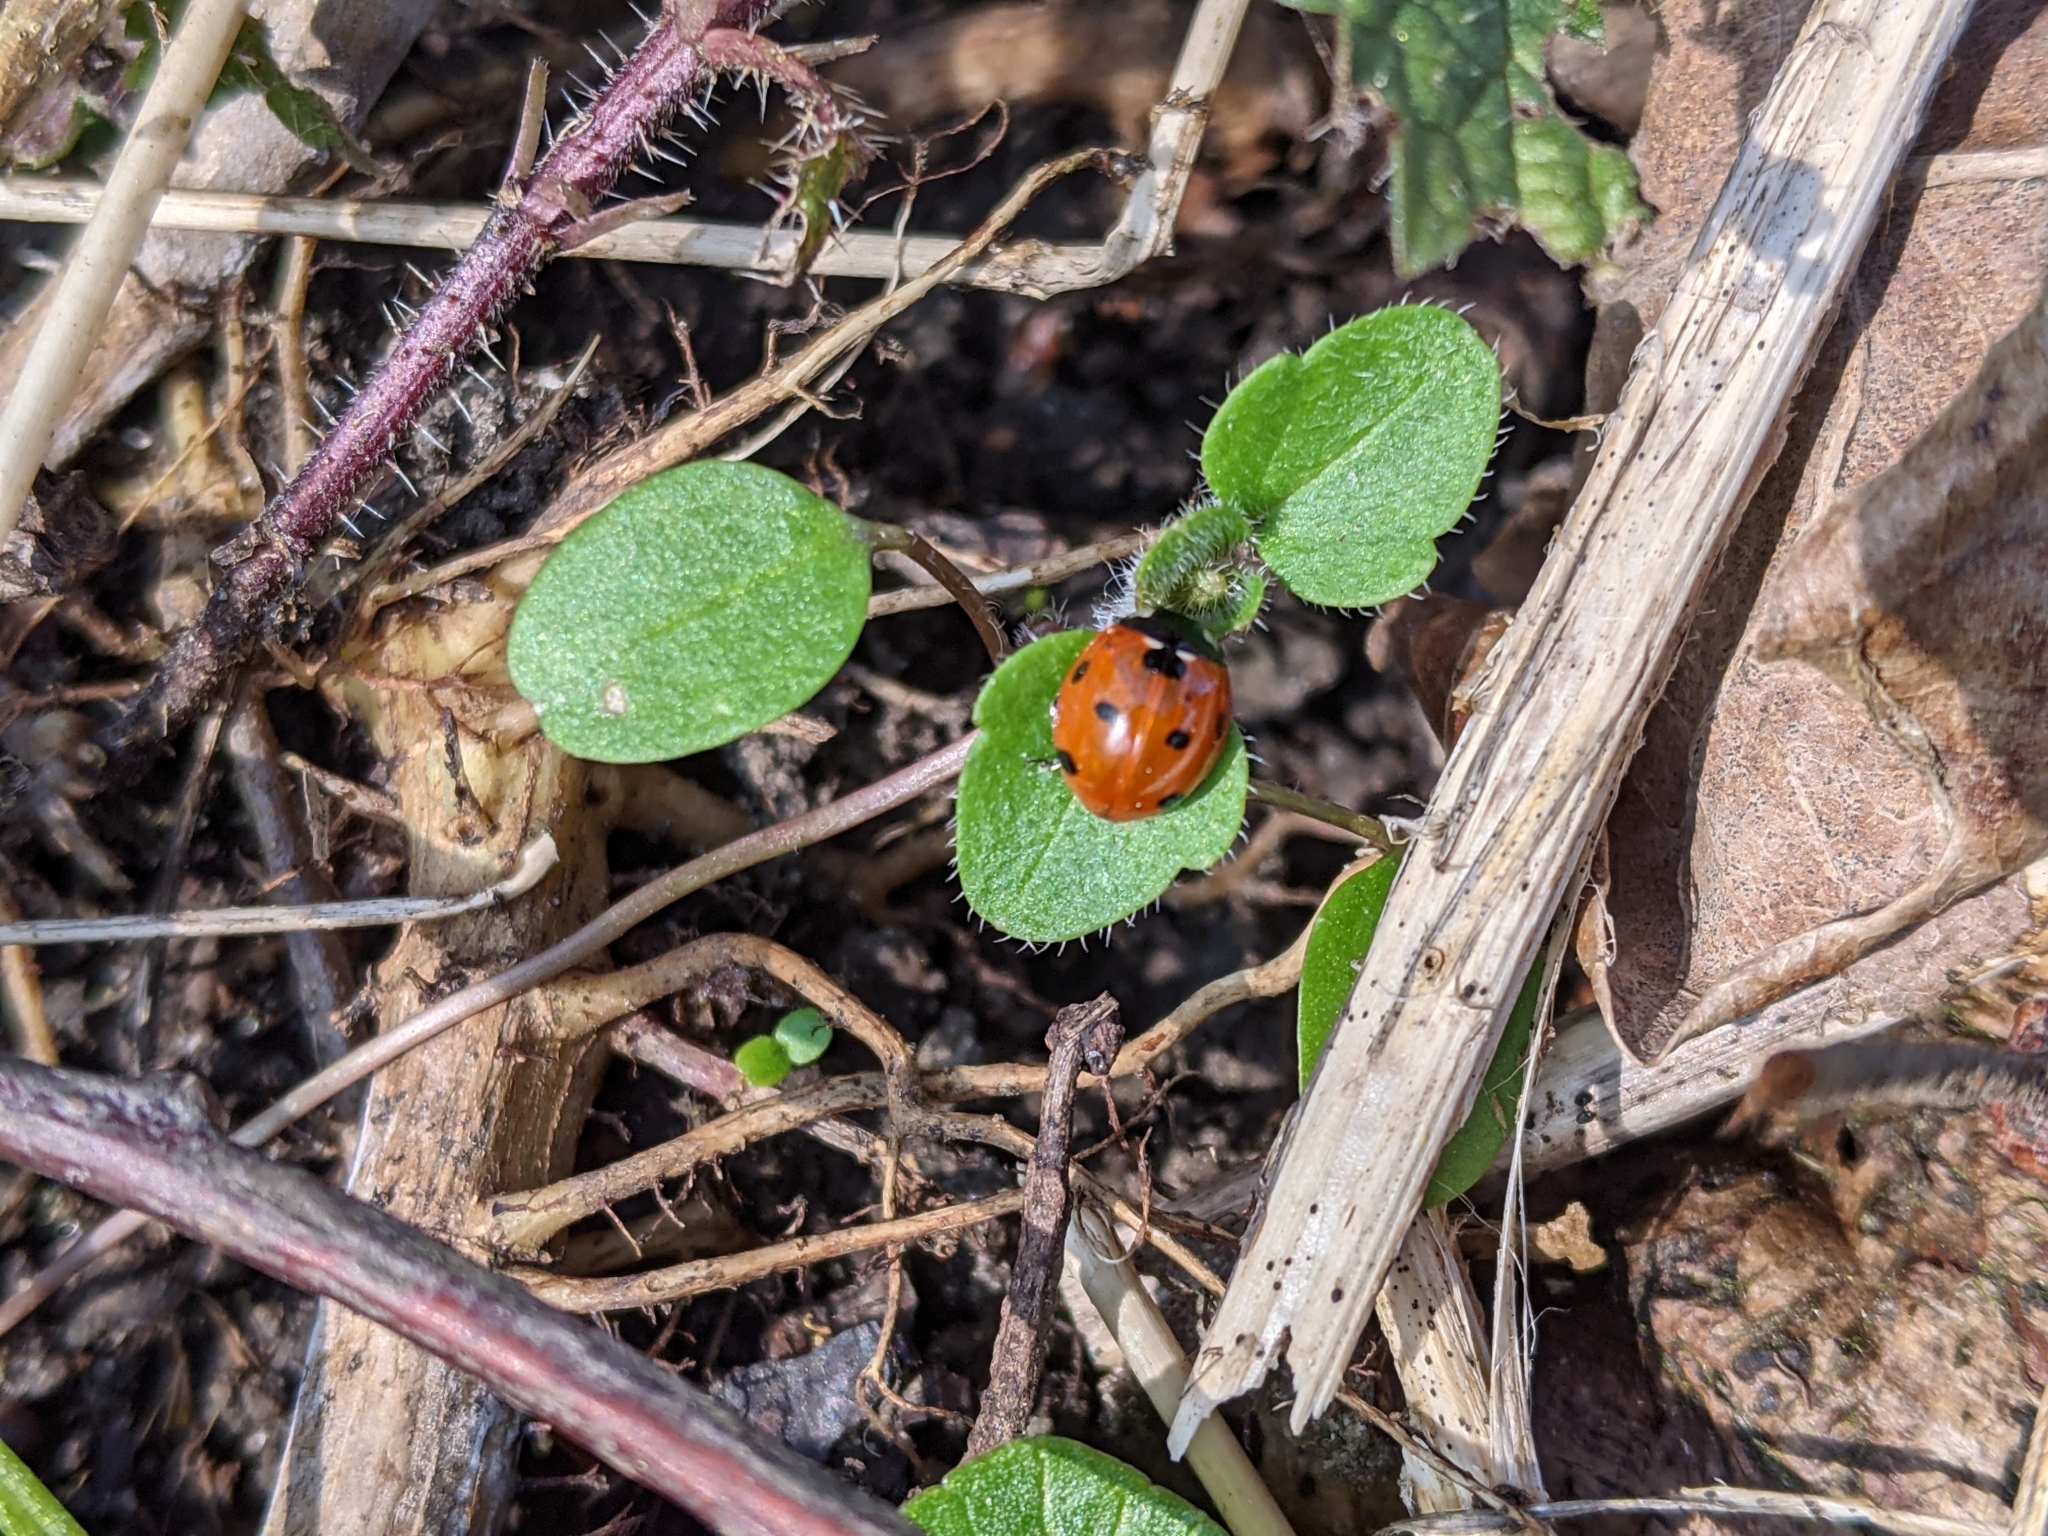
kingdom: Animalia
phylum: Arthropoda
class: Insecta
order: Coleoptera
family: Coccinellidae
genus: Coccinella
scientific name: Coccinella septempunctata
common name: Sevenspotted lady beetle
